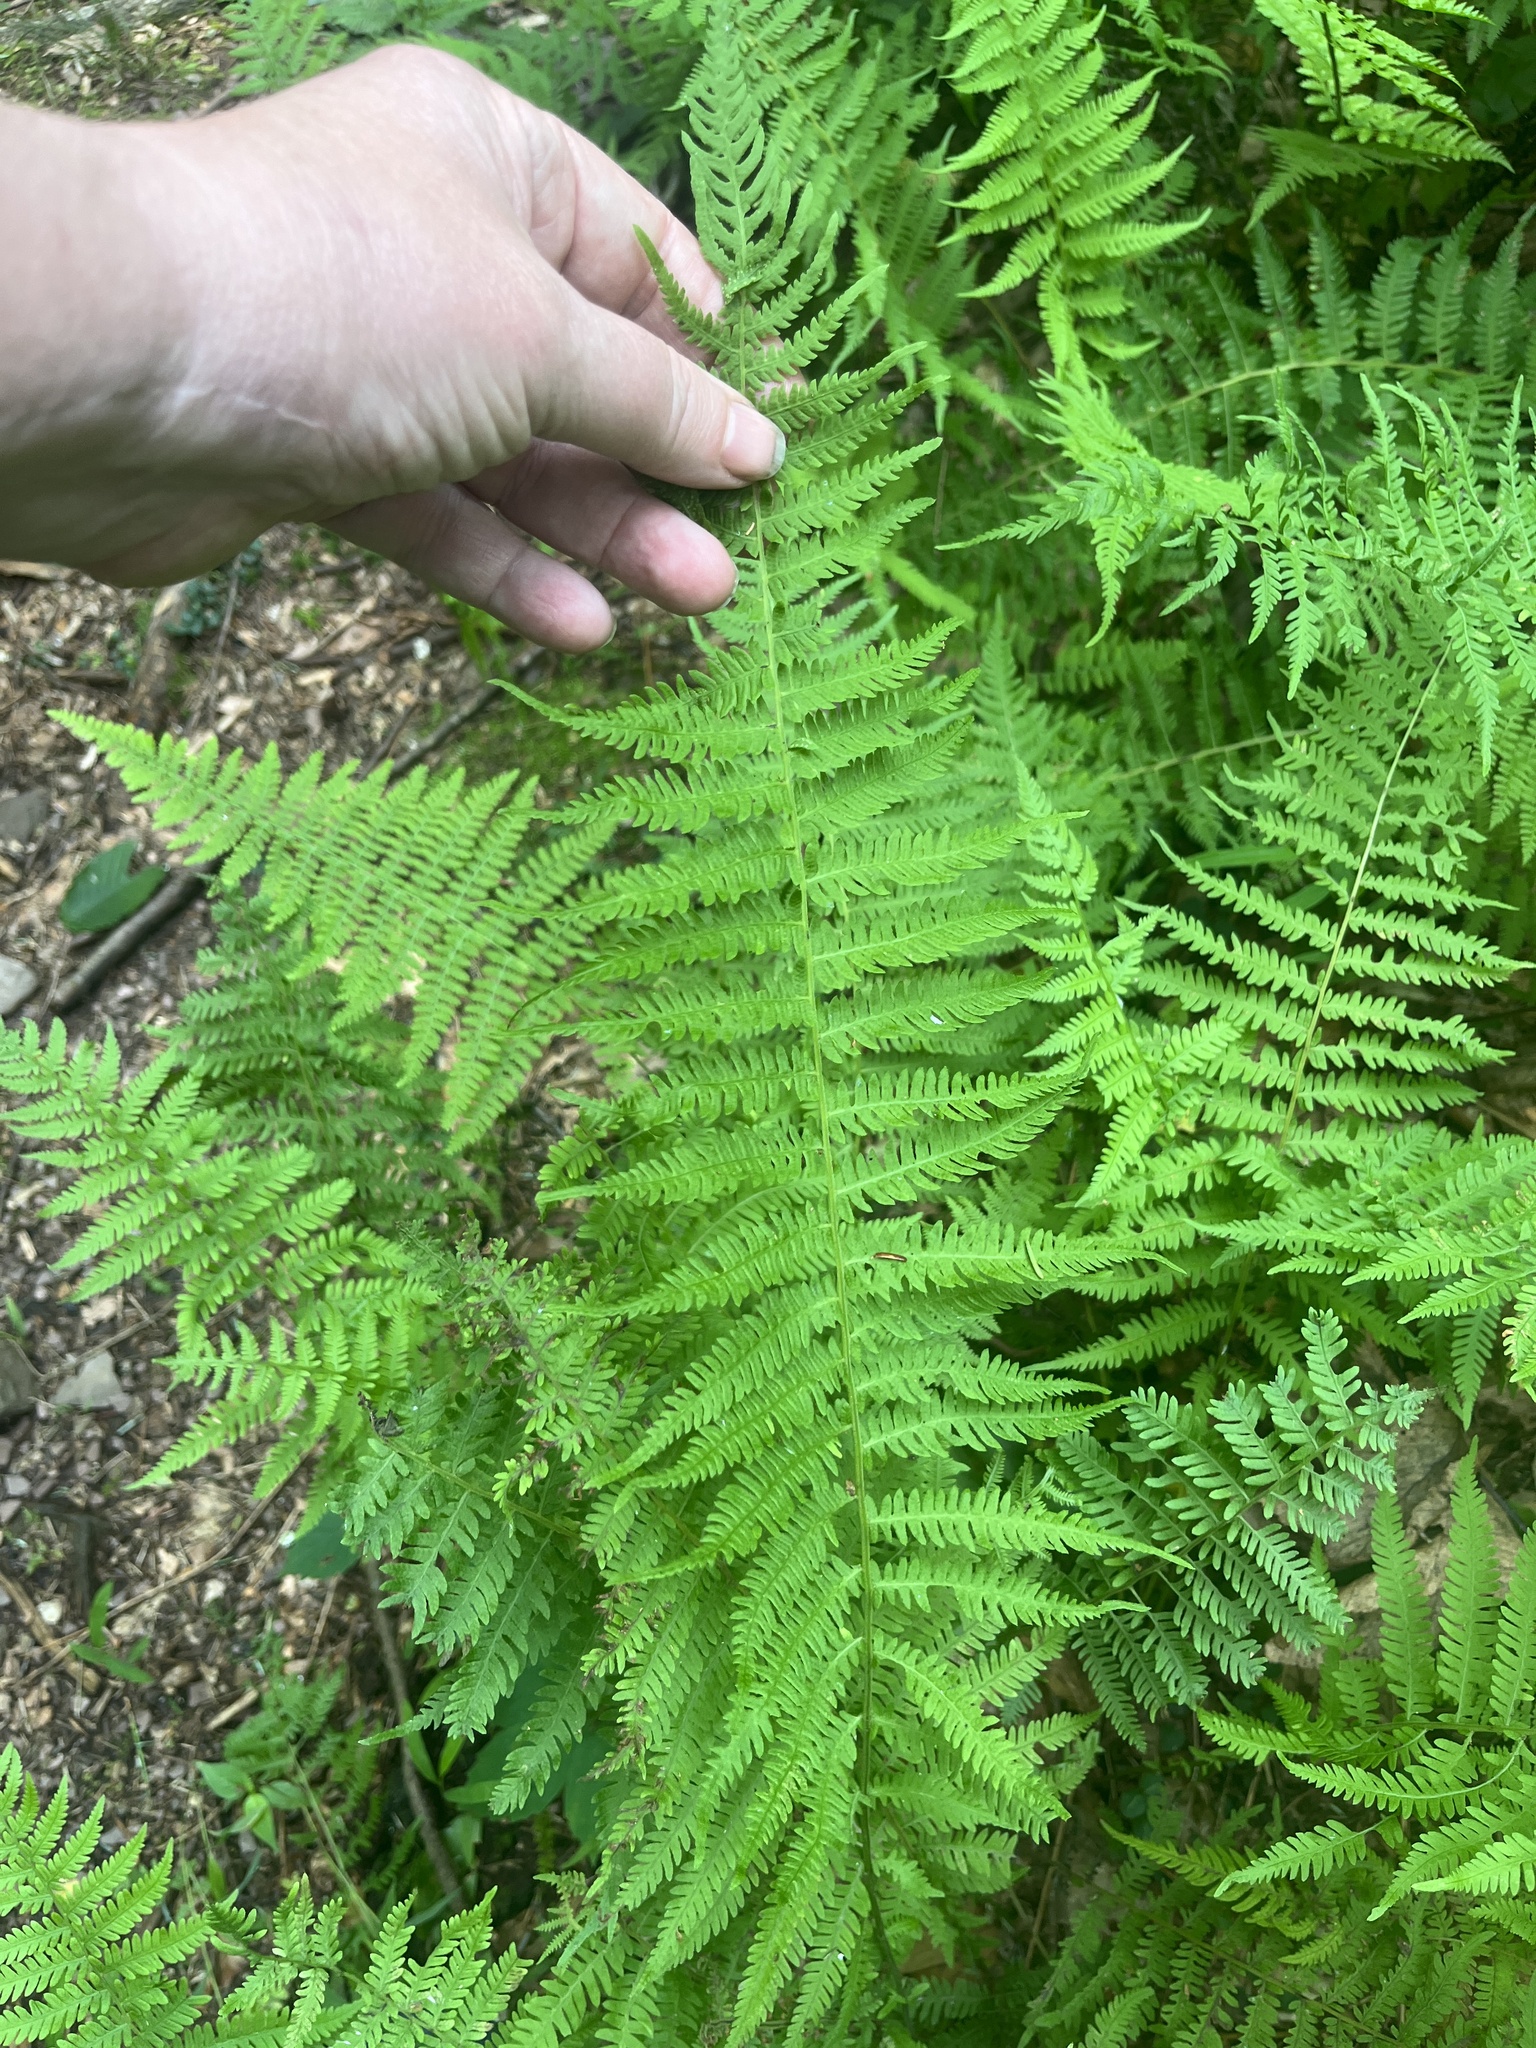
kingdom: Plantae
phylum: Tracheophyta
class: Polypodiopsida
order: Polypodiales
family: Thelypteridaceae
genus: Amauropelta
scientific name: Amauropelta noveboracensis
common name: New york fern
